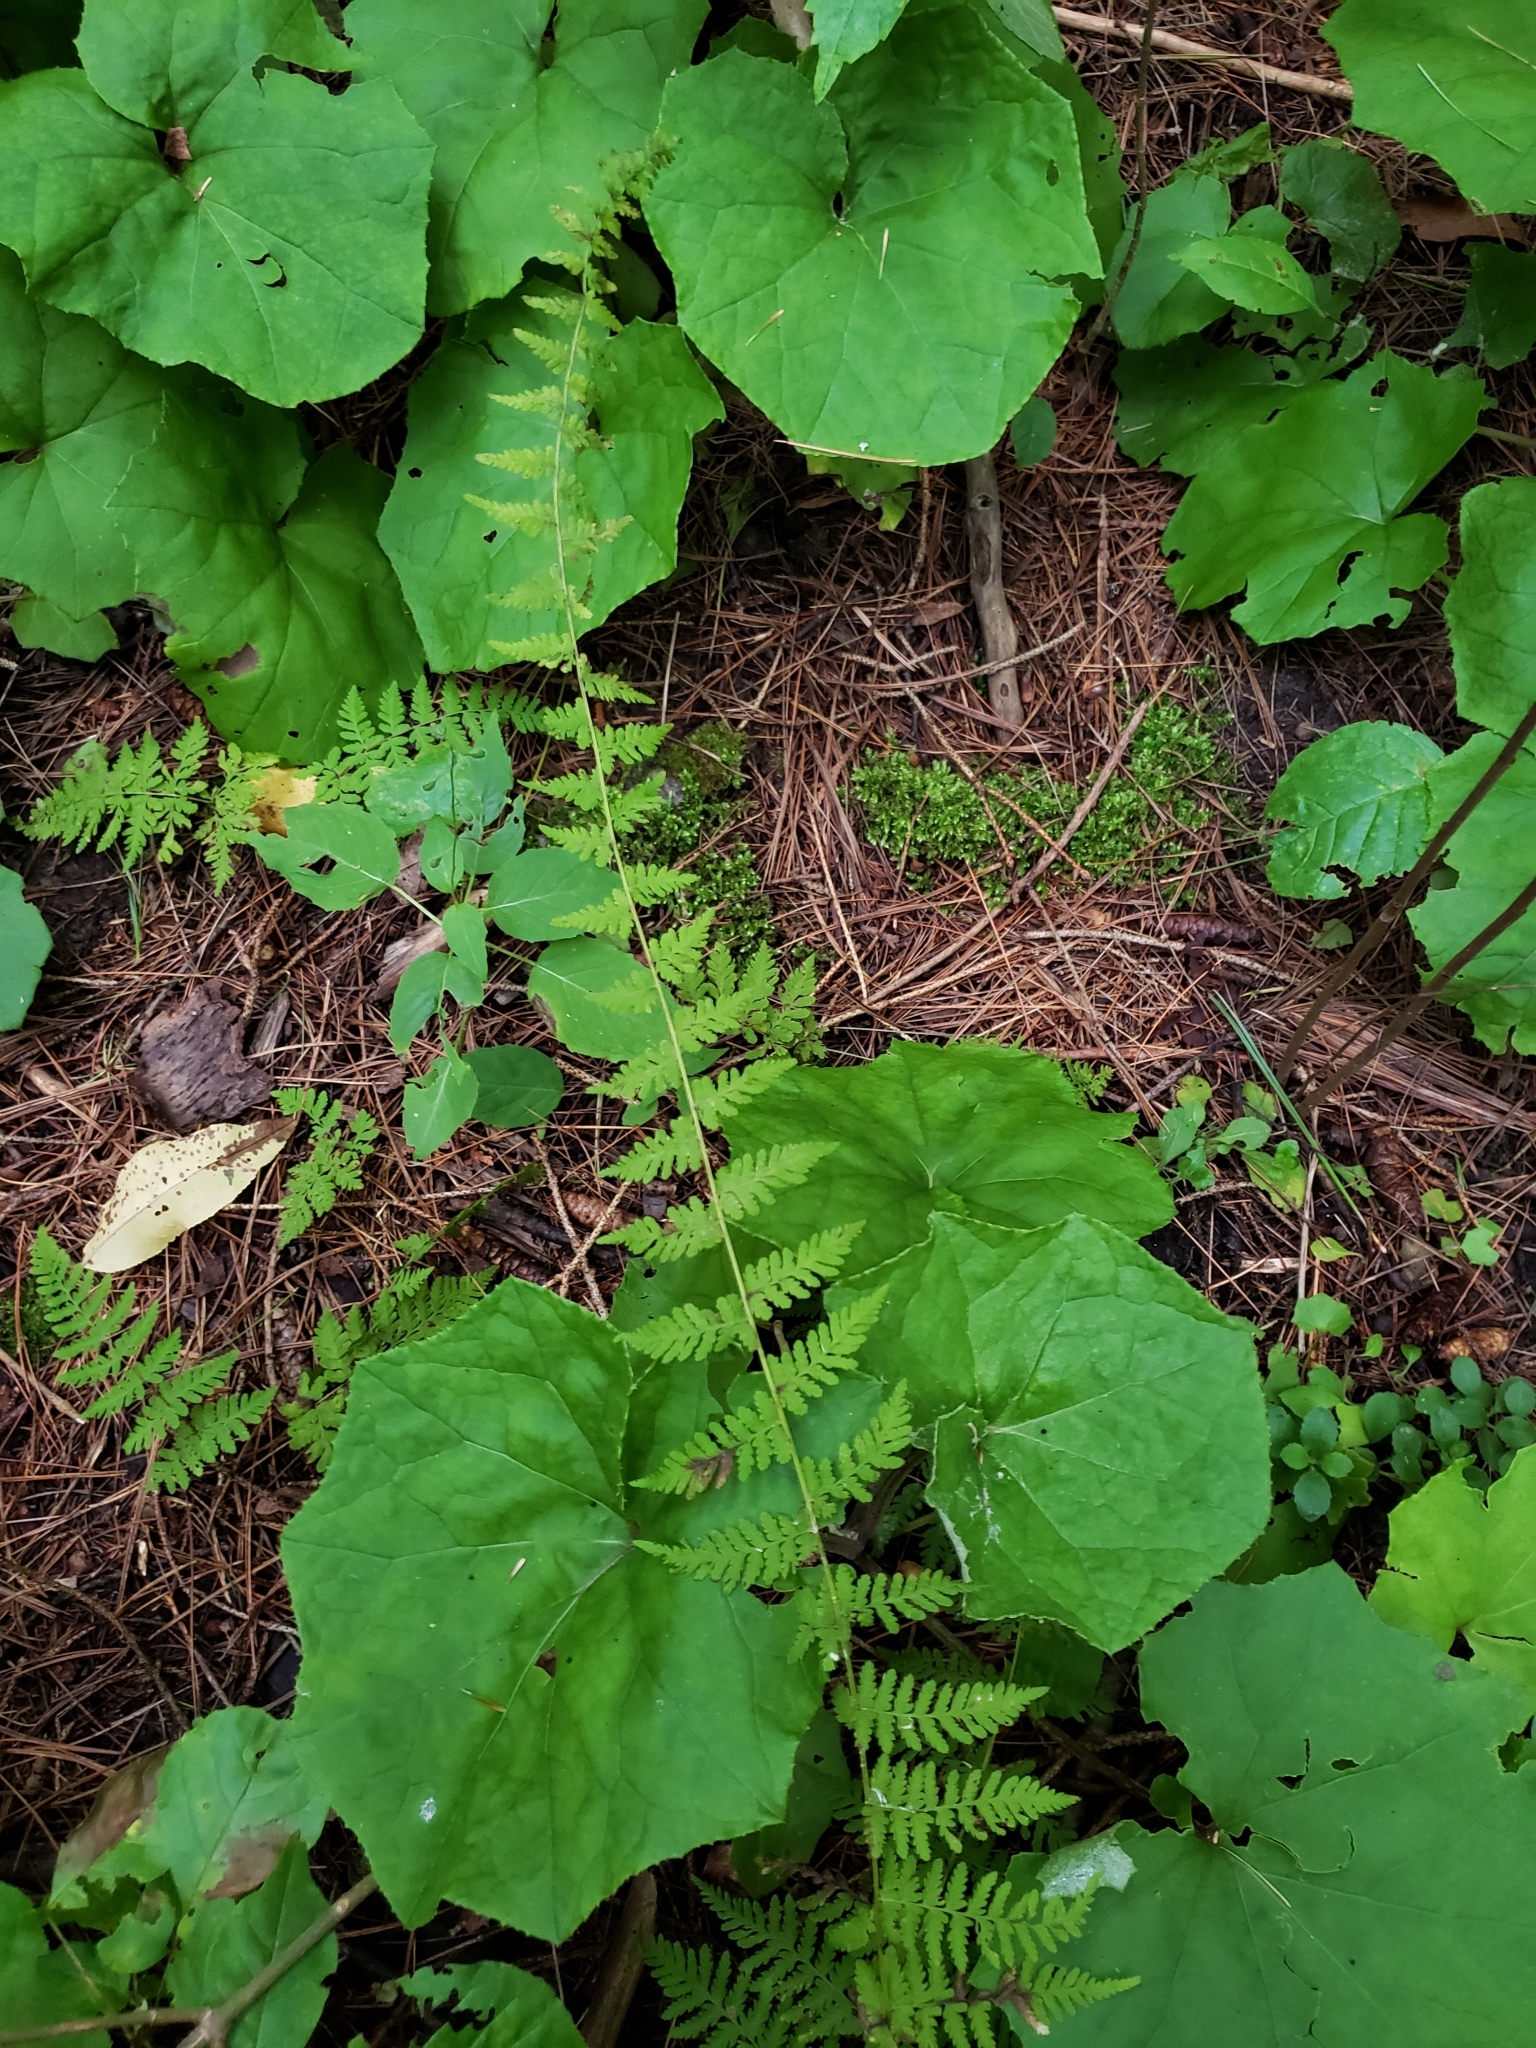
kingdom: Plantae
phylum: Tracheophyta
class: Polypodiopsida
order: Polypodiales
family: Cystopteridaceae
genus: Cystopteris
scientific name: Cystopteris bulbifera
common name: Bulblet bladder fern
